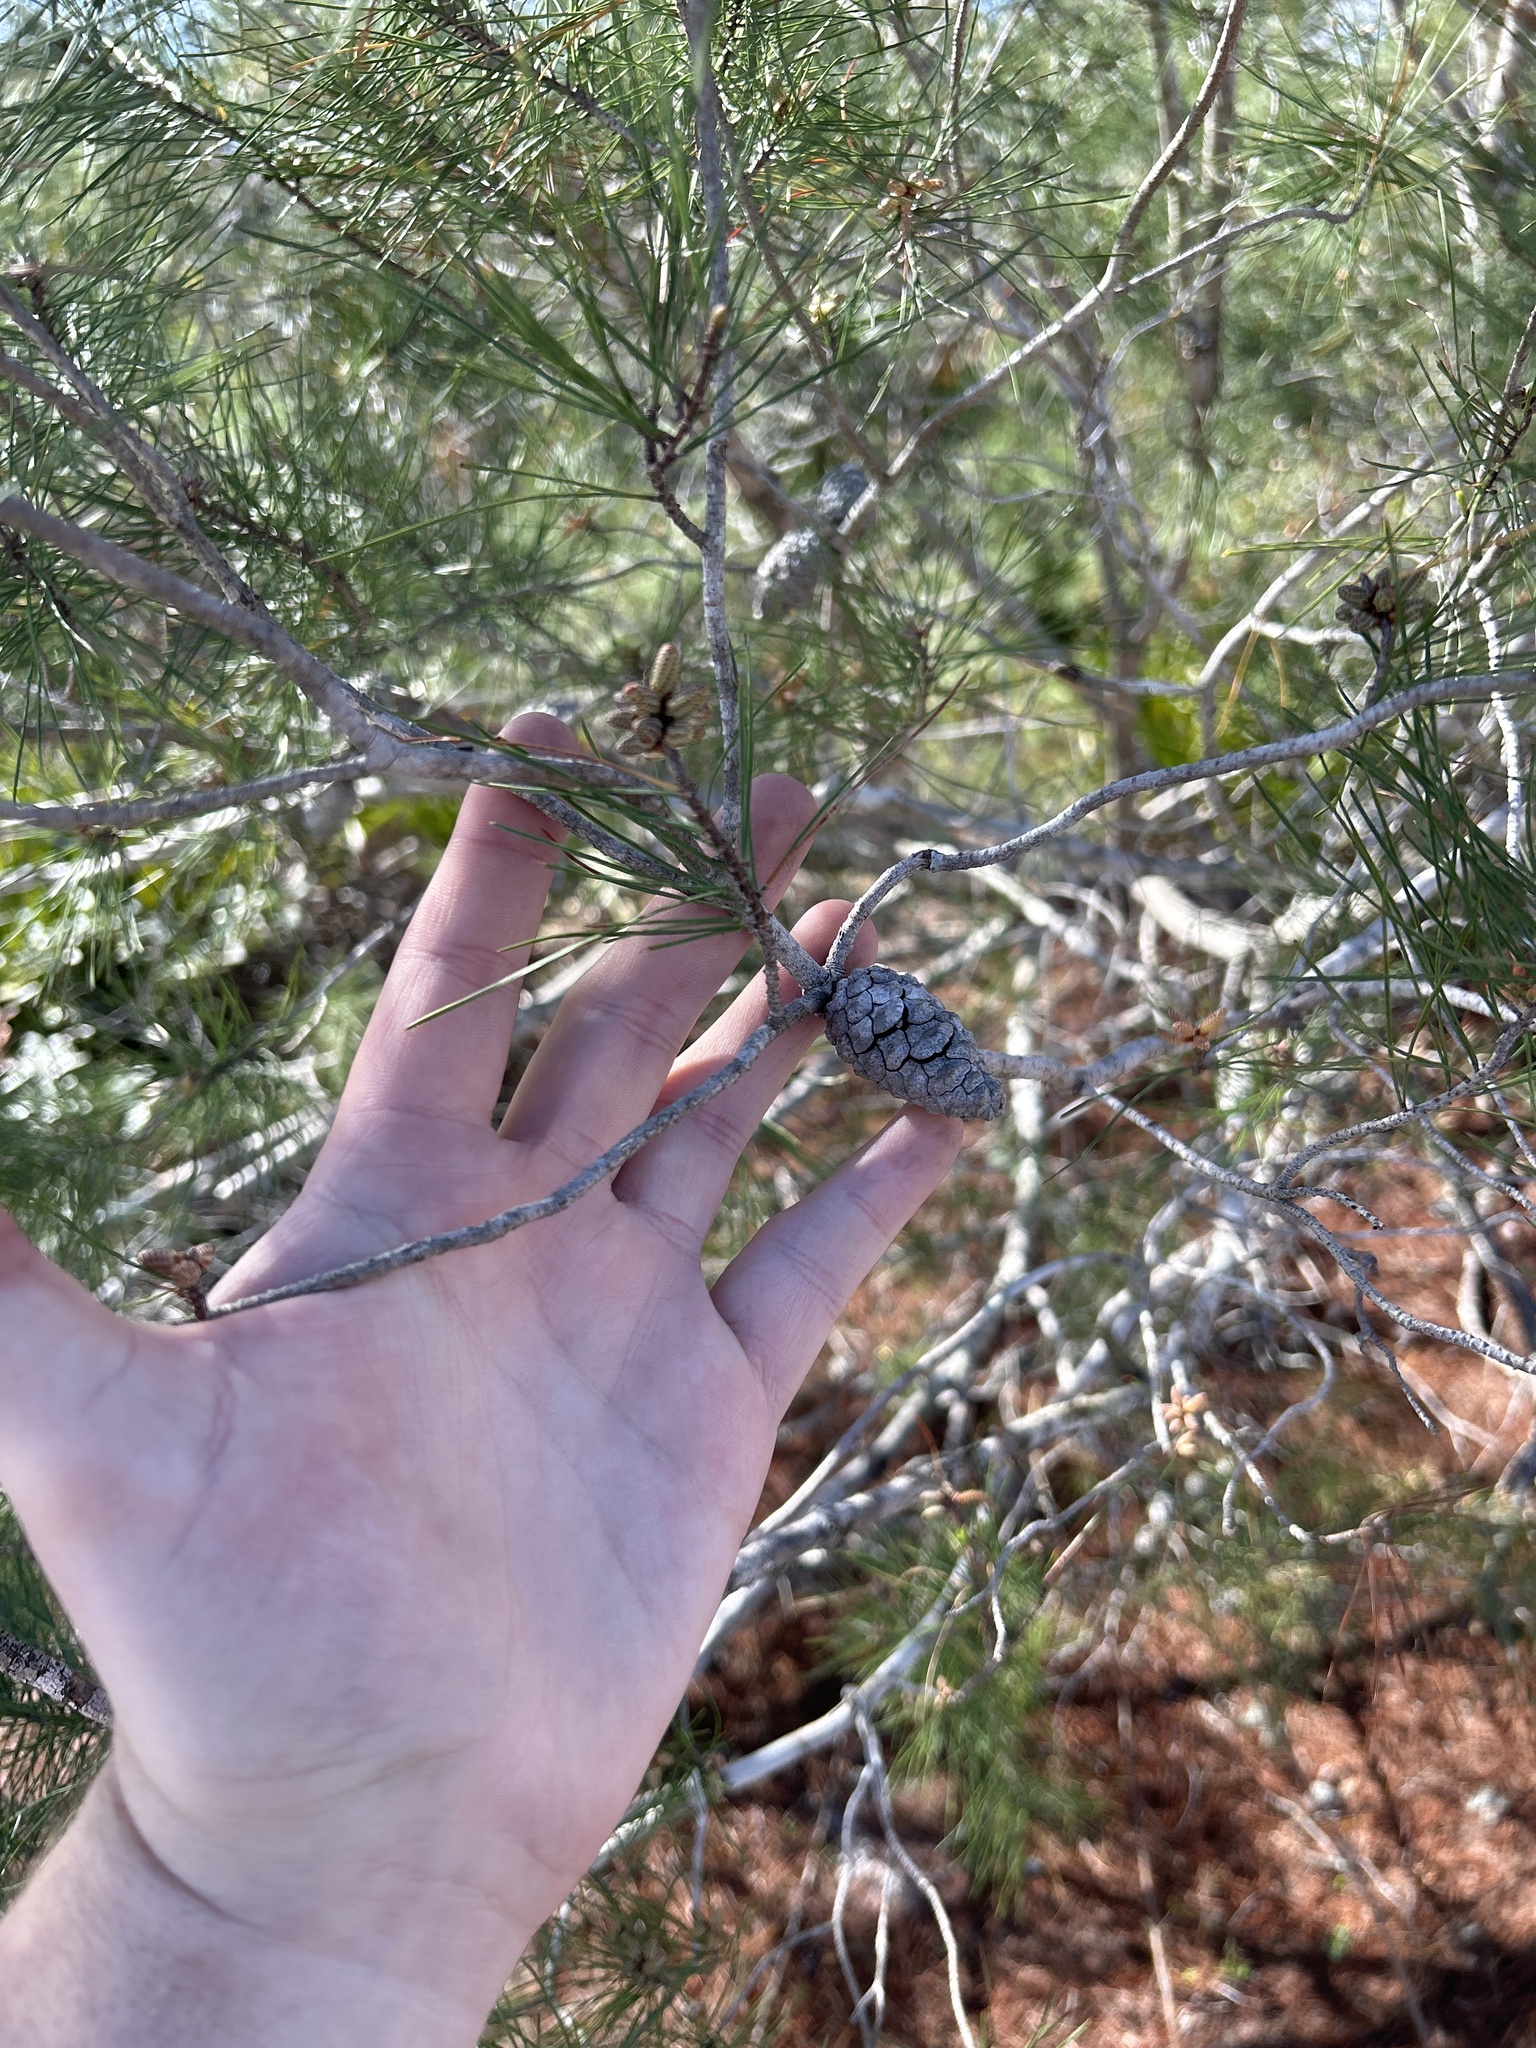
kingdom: Plantae
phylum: Tracheophyta
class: Pinopsida
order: Pinales
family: Pinaceae
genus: Pinus
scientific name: Pinus clausa
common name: Sand pine
